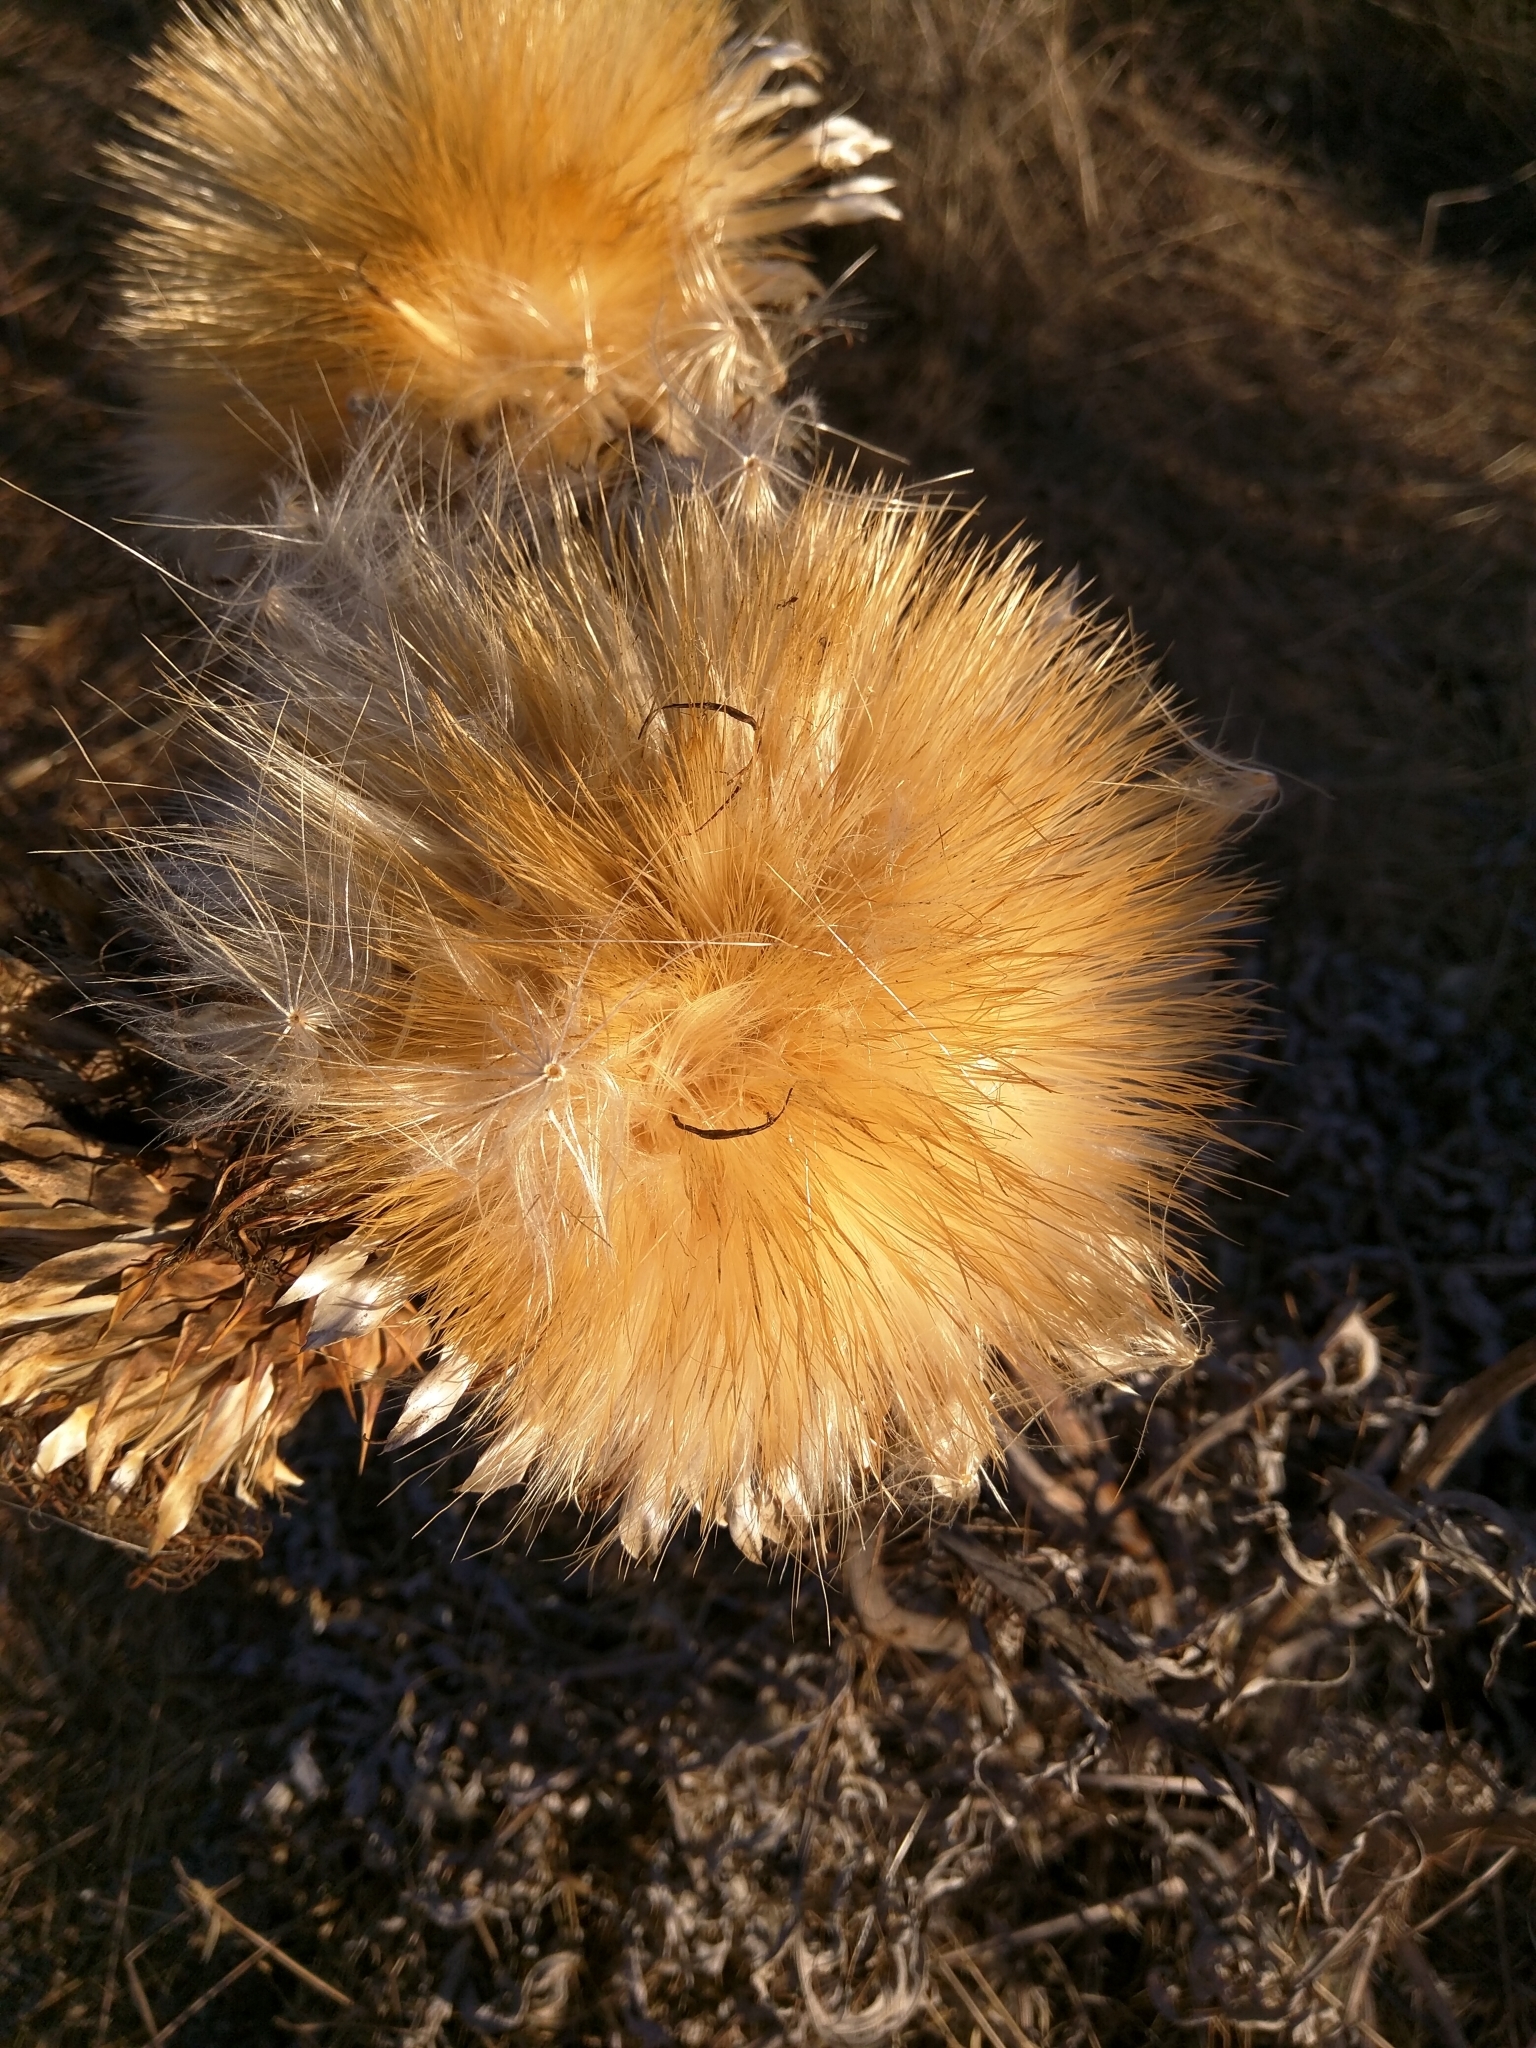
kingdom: Plantae
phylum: Tracheophyta
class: Magnoliopsida
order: Asterales
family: Asteraceae
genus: Cynara
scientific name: Cynara cardunculus
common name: Globe artichoke
